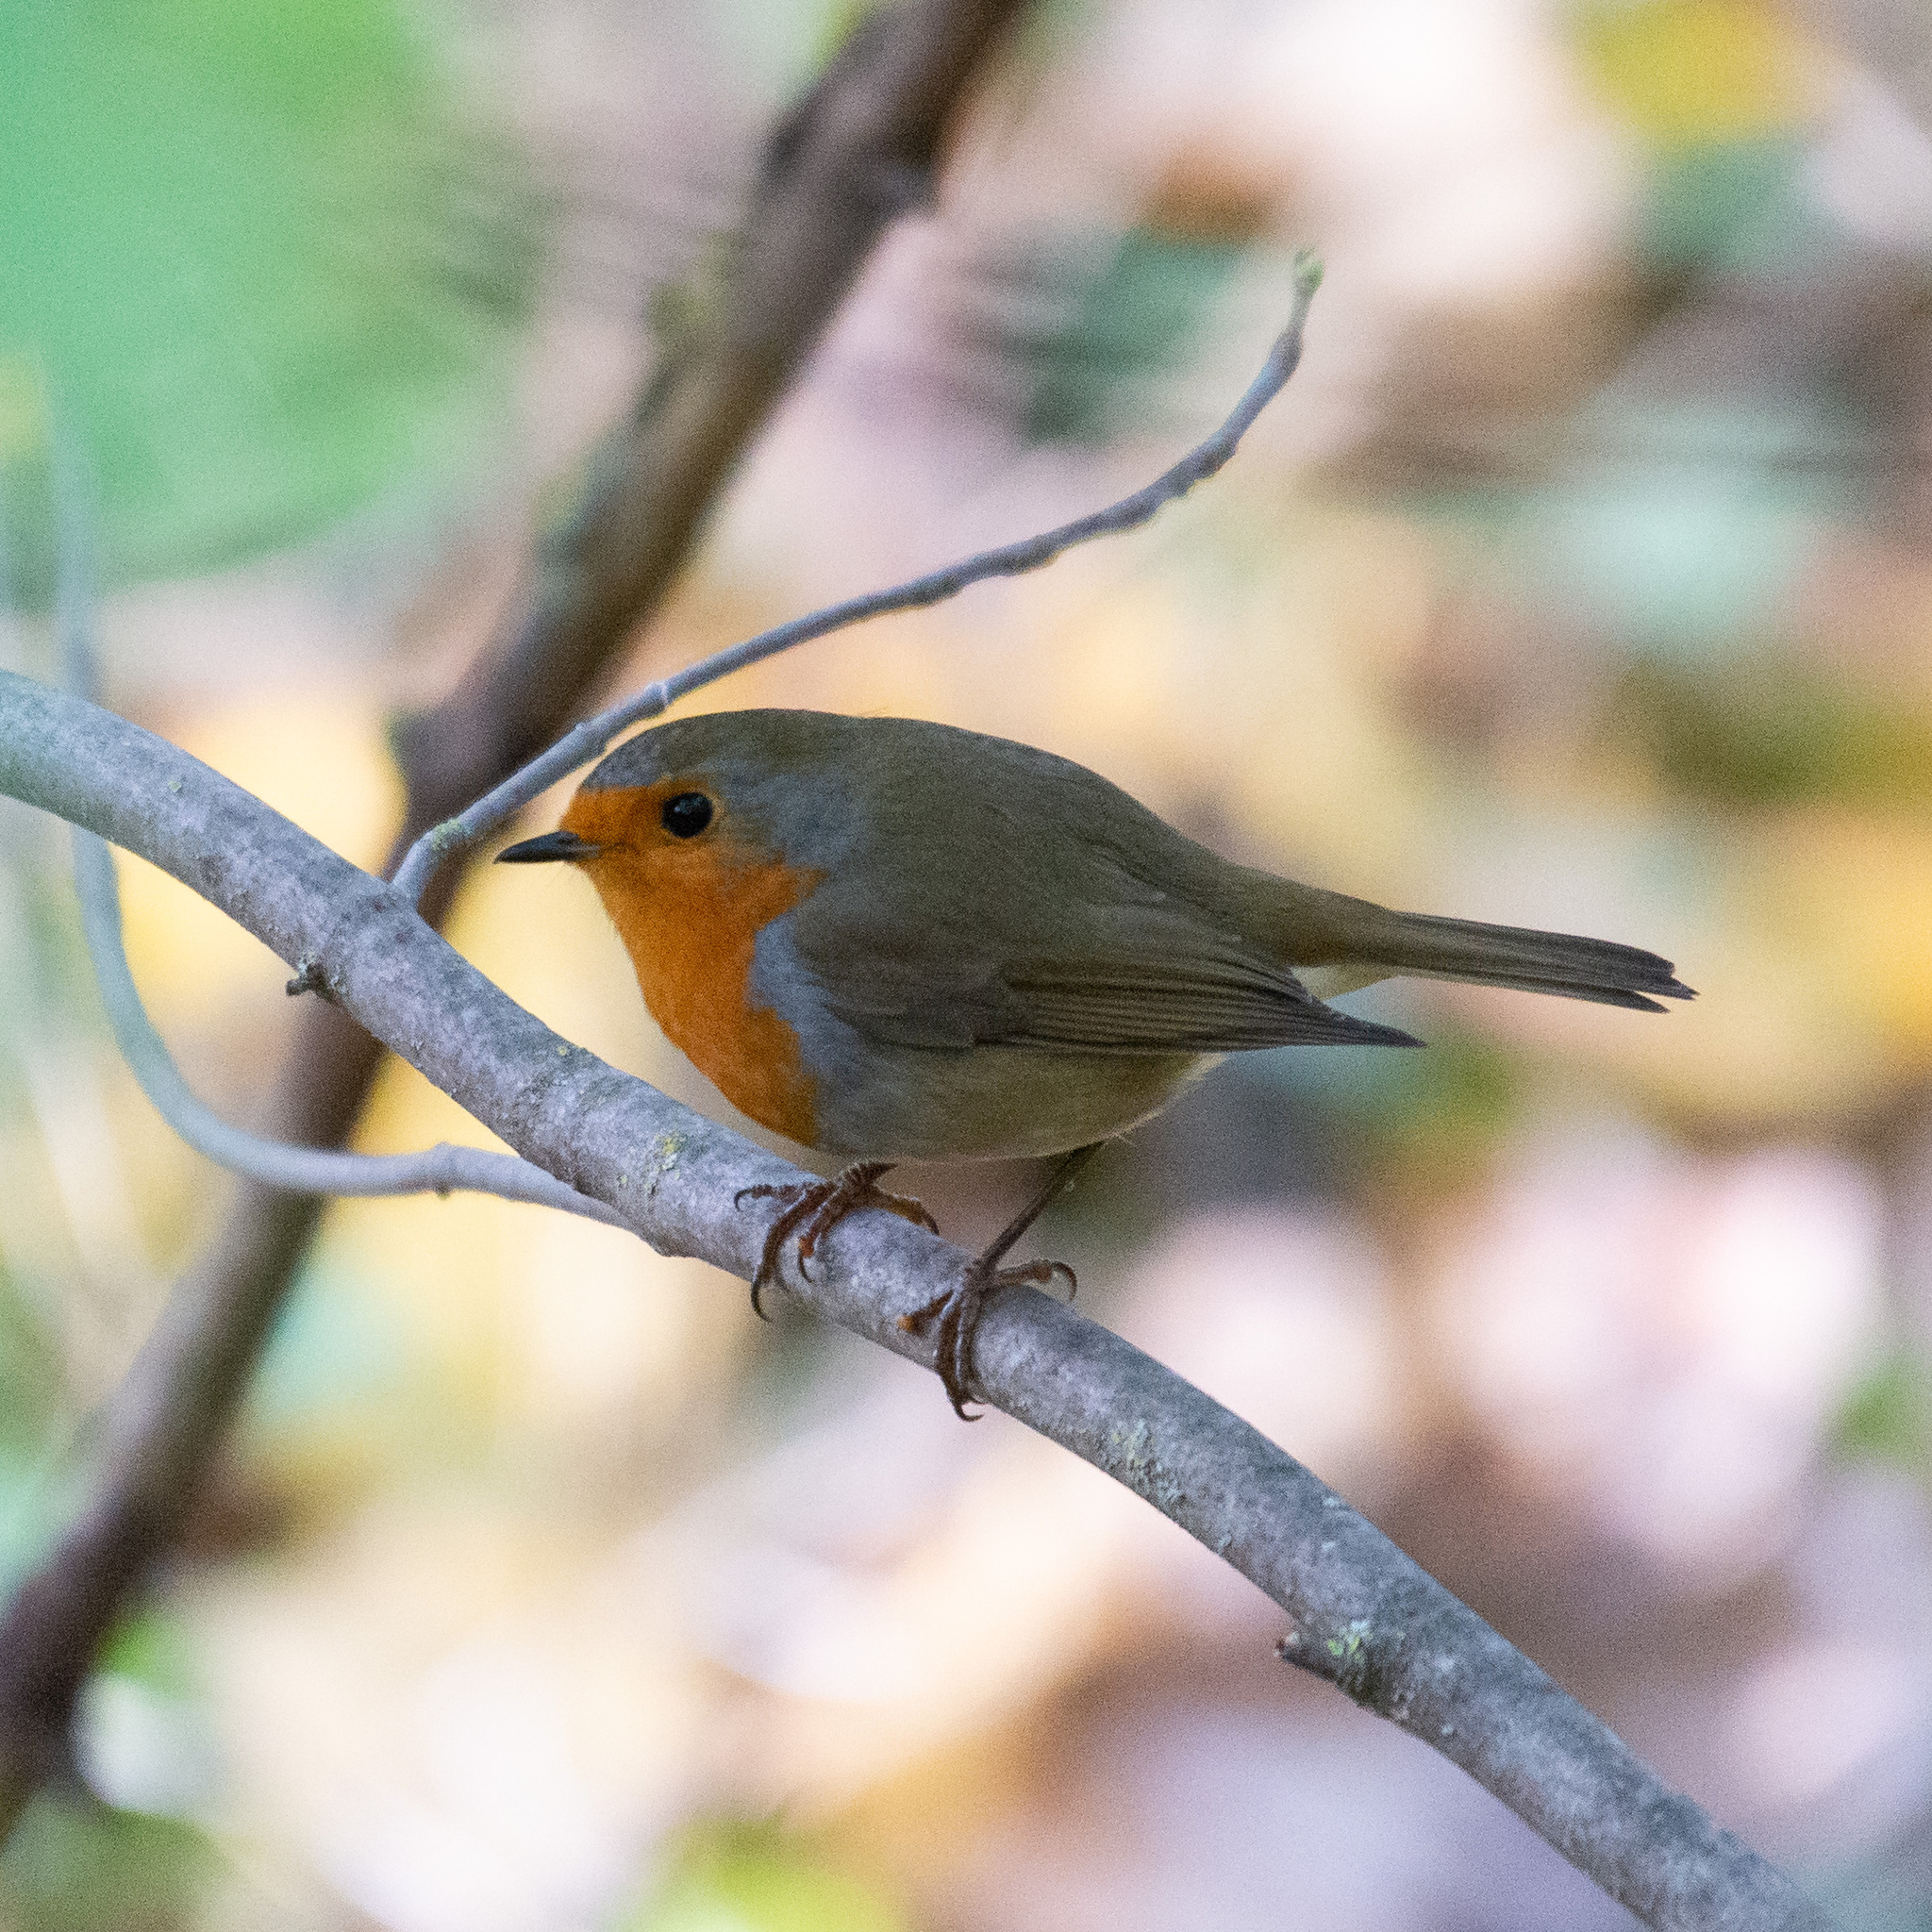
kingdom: Animalia
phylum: Chordata
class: Aves
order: Passeriformes
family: Muscicapidae
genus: Erithacus
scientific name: Erithacus rubecula
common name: European robin
